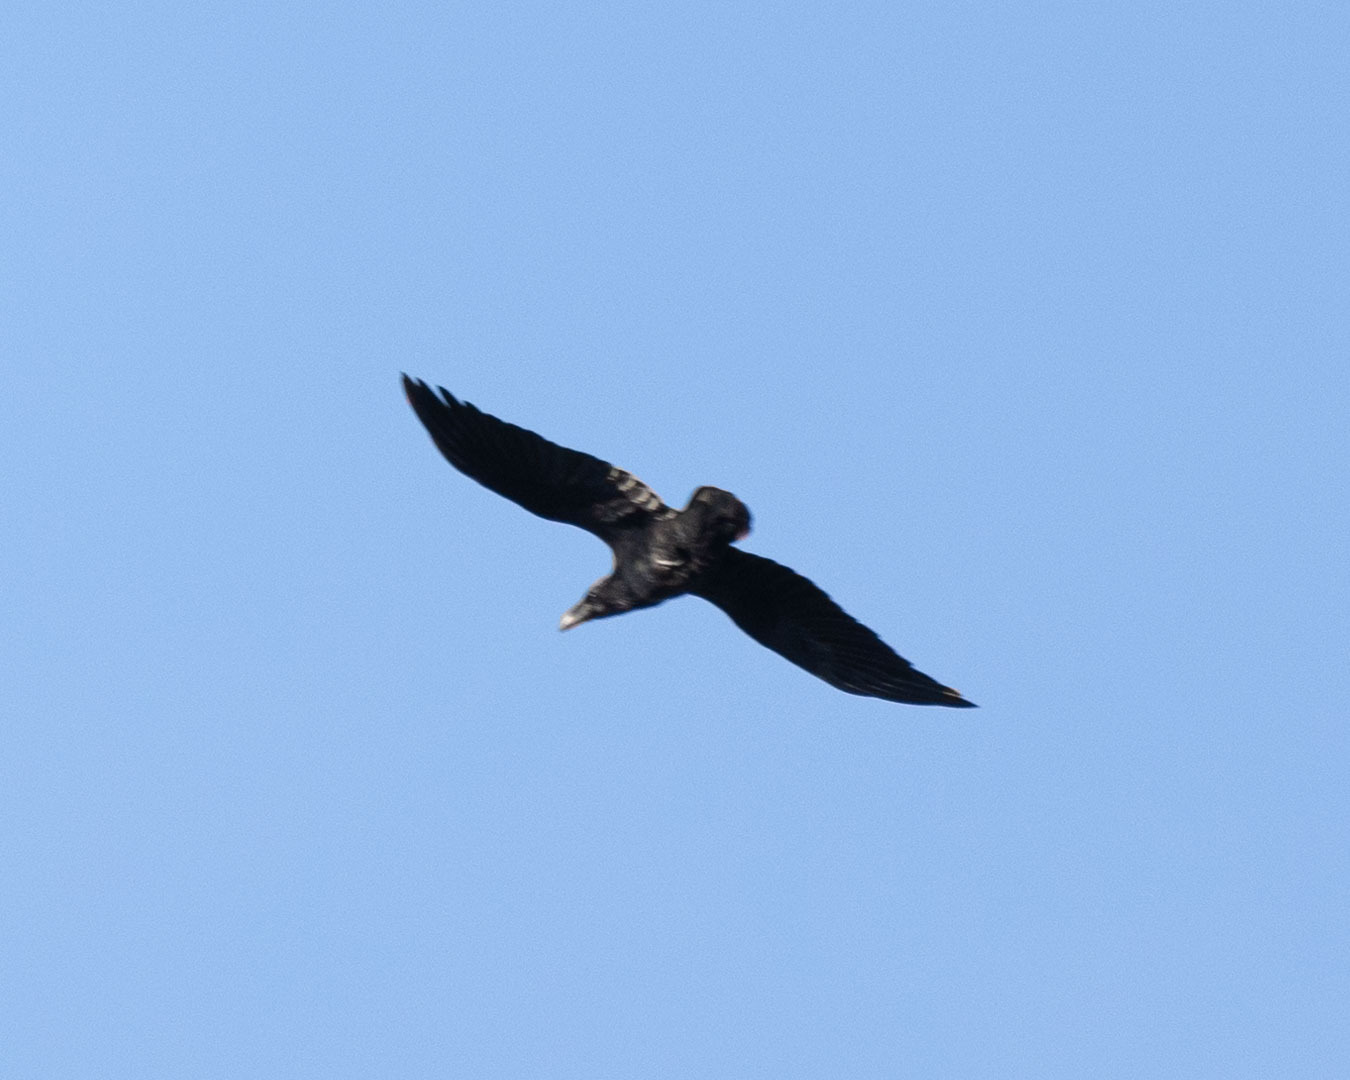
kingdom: Animalia
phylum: Chordata
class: Aves
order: Passeriformes
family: Corvidae
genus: Corvus
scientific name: Corvus corax
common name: Common raven
